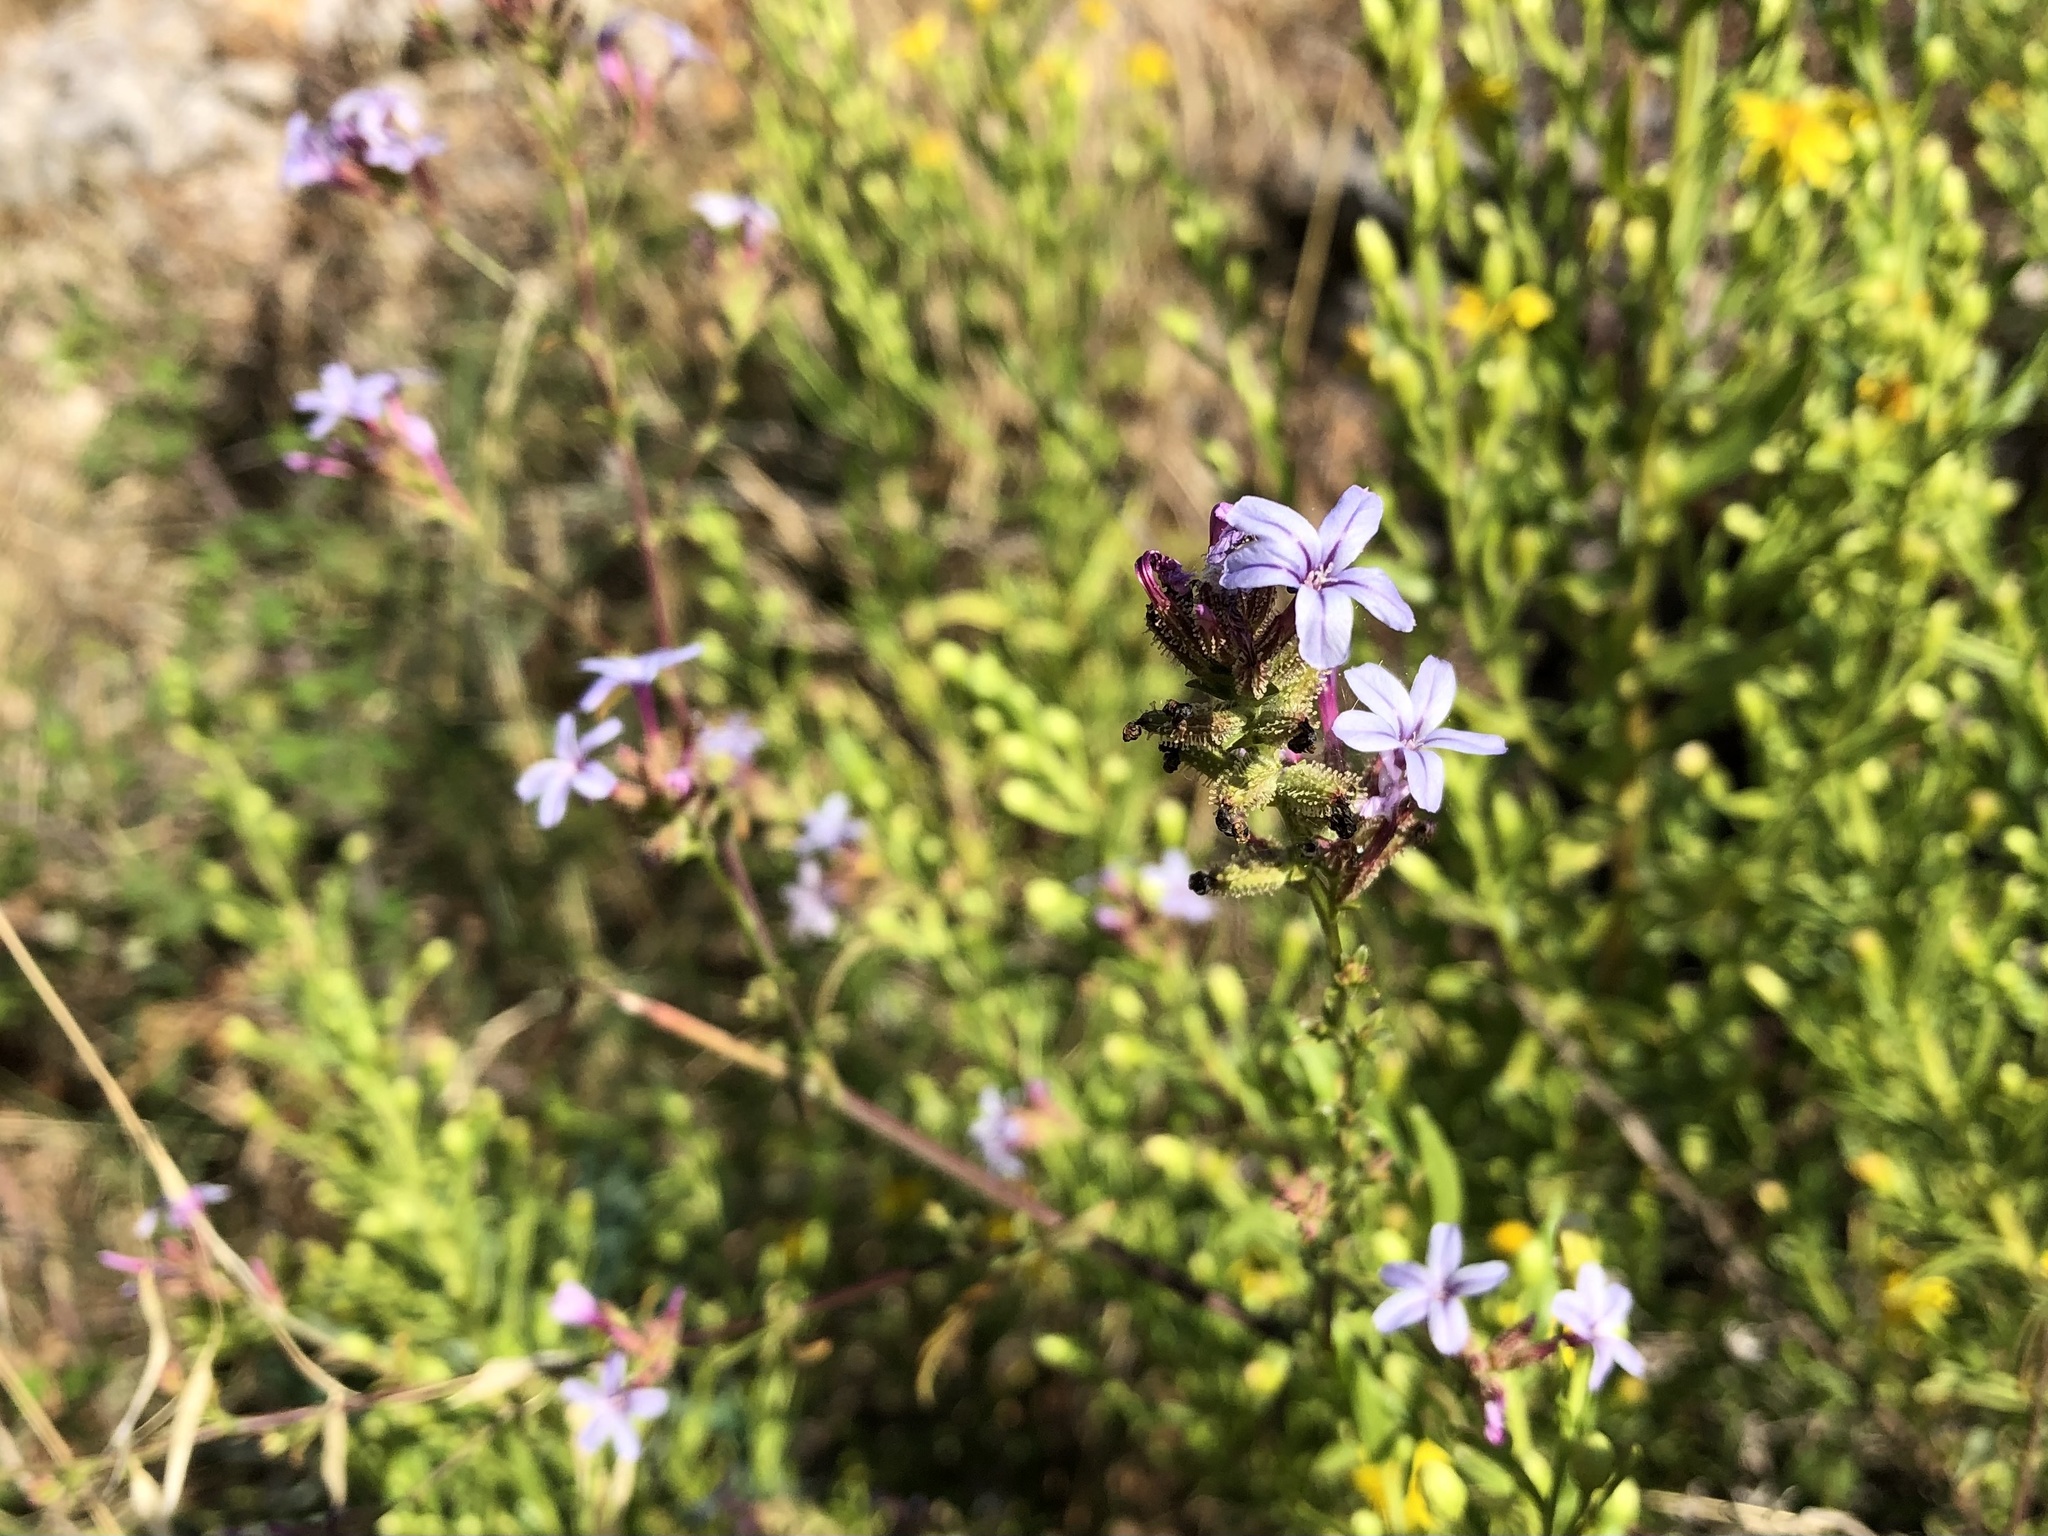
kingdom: Plantae
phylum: Tracheophyta
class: Magnoliopsida
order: Caryophyllales
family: Plumbaginaceae
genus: Plumbago
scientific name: Plumbago europaea
